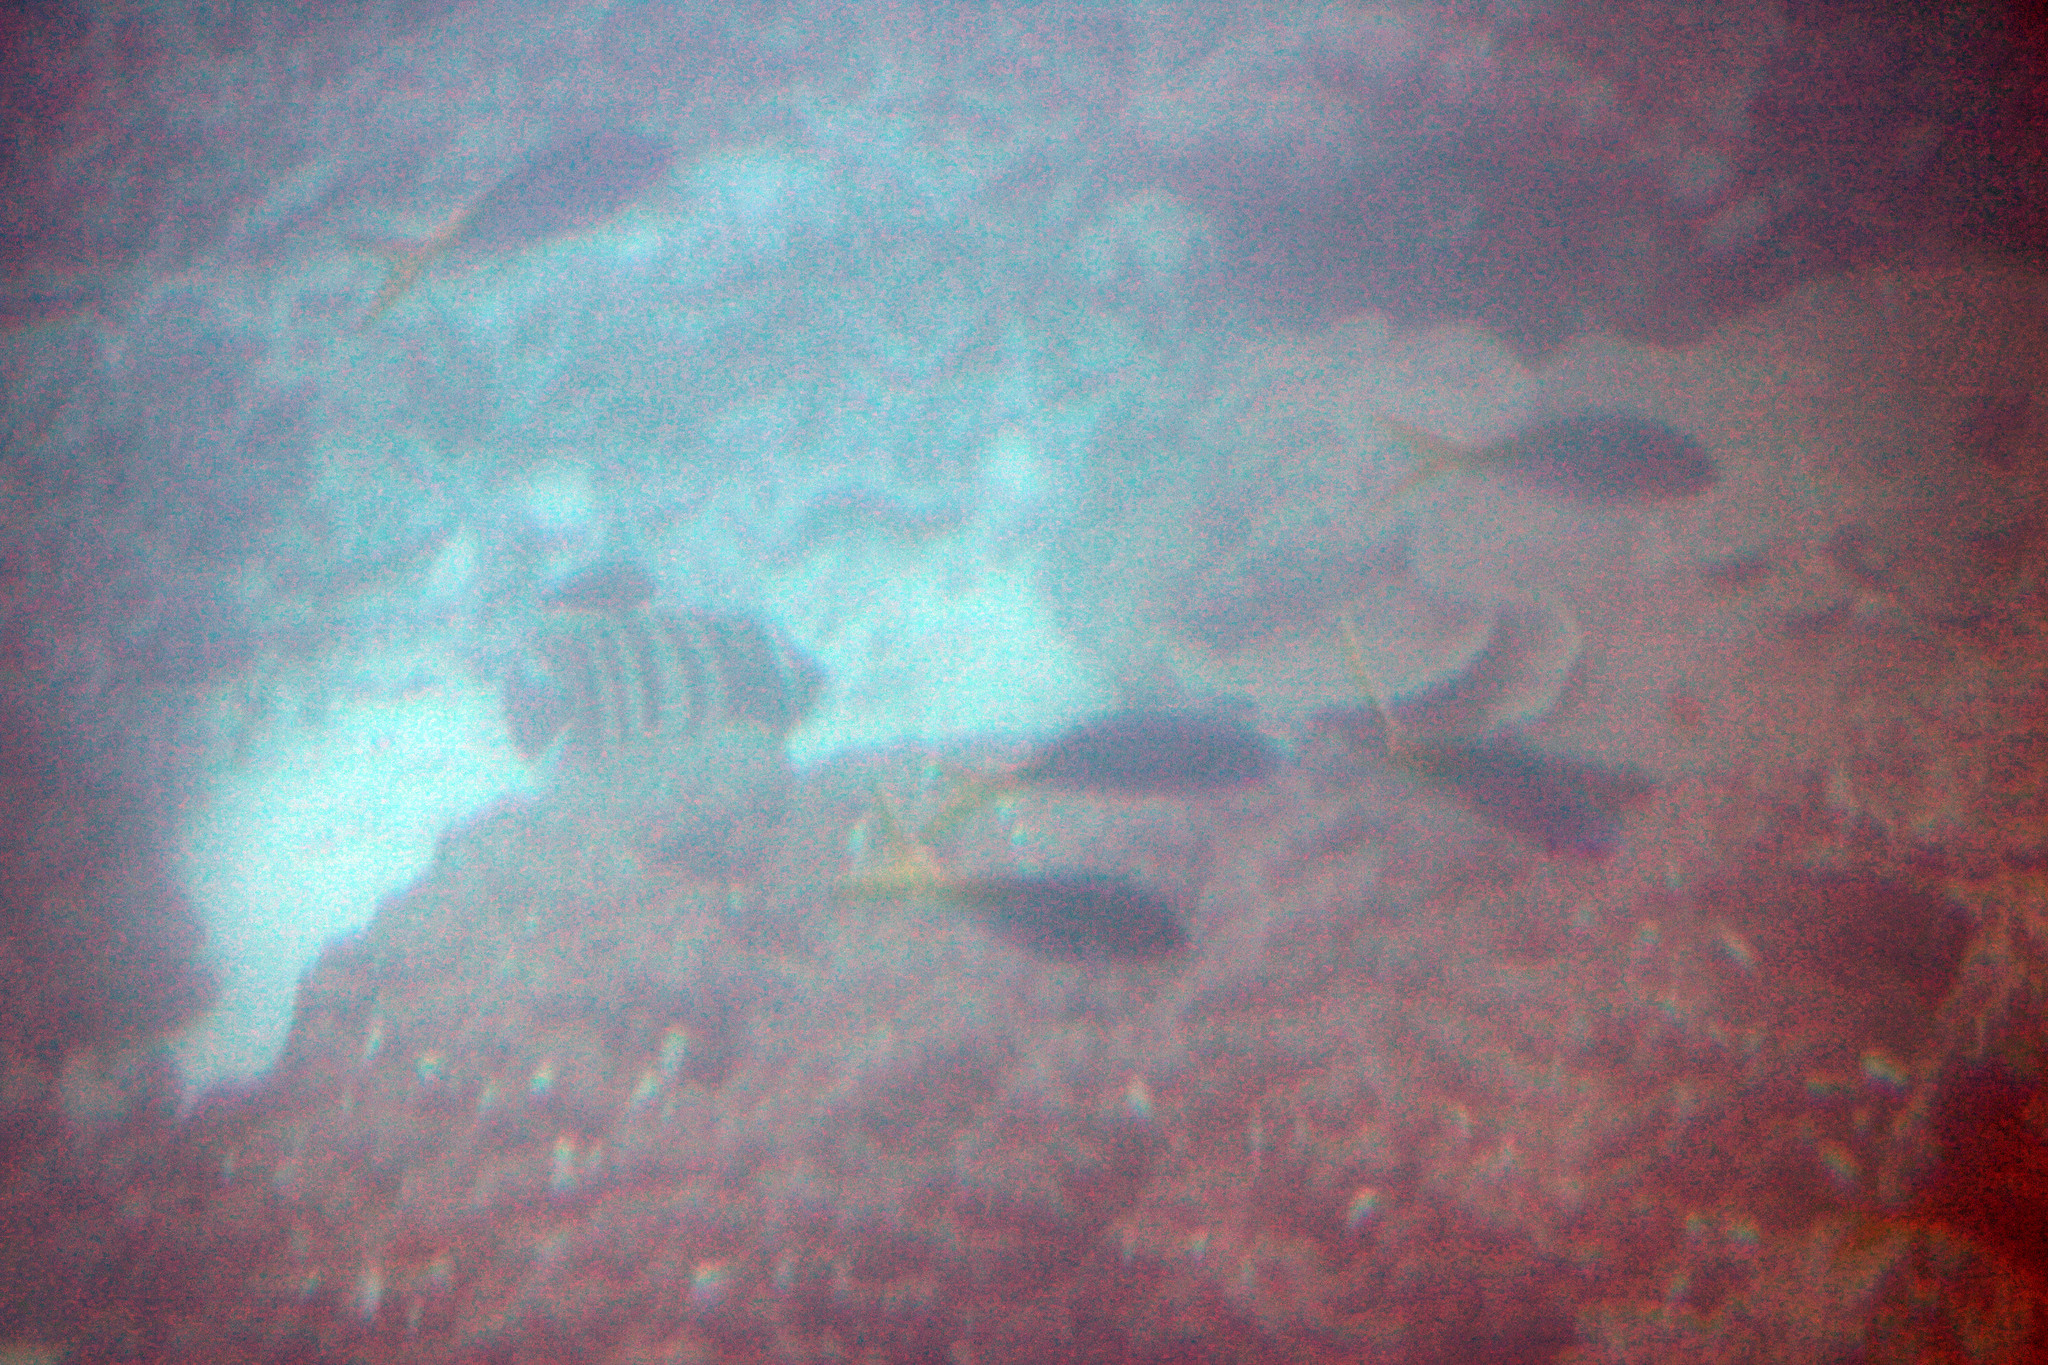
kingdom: Animalia
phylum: Chordata
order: Perciformes
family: Caesionidae
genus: Caesio
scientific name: Caesio teres
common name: Yellow and blueback fusilier
